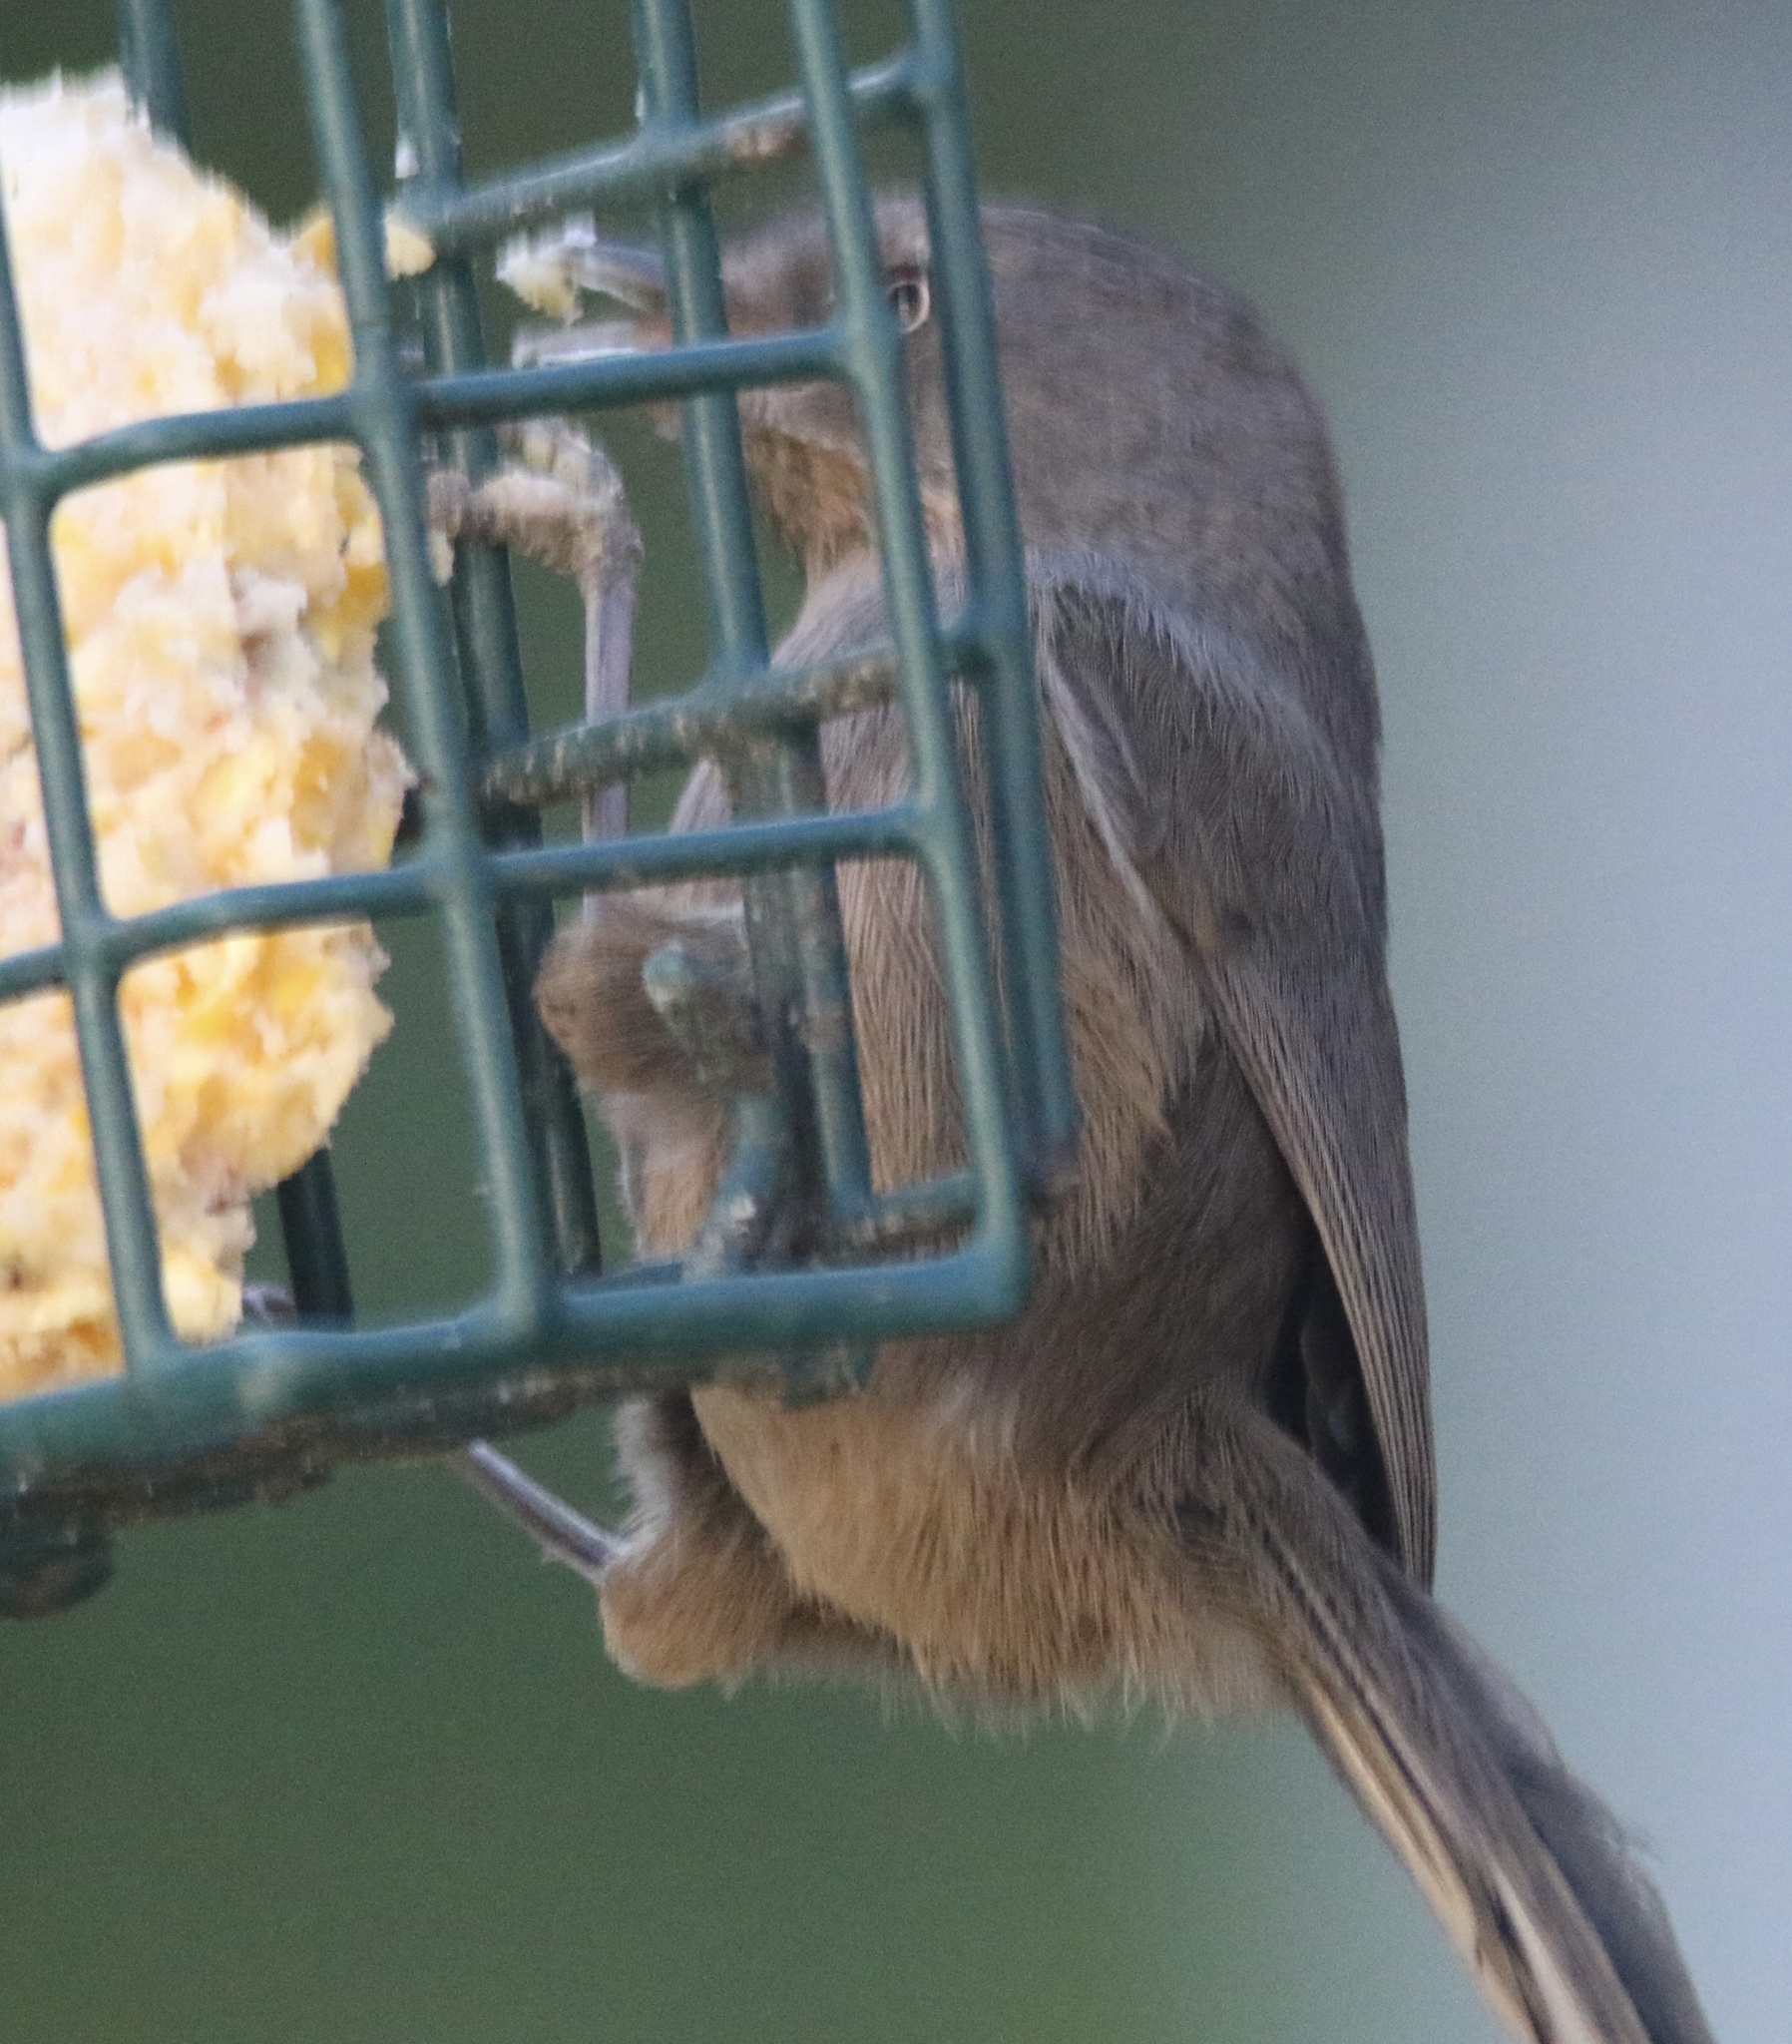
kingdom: Animalia
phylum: Chordata
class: Aves
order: Passeriformes
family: Sylviidae
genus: Chamaea
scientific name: Chamaea fasciata
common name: Wrentit
